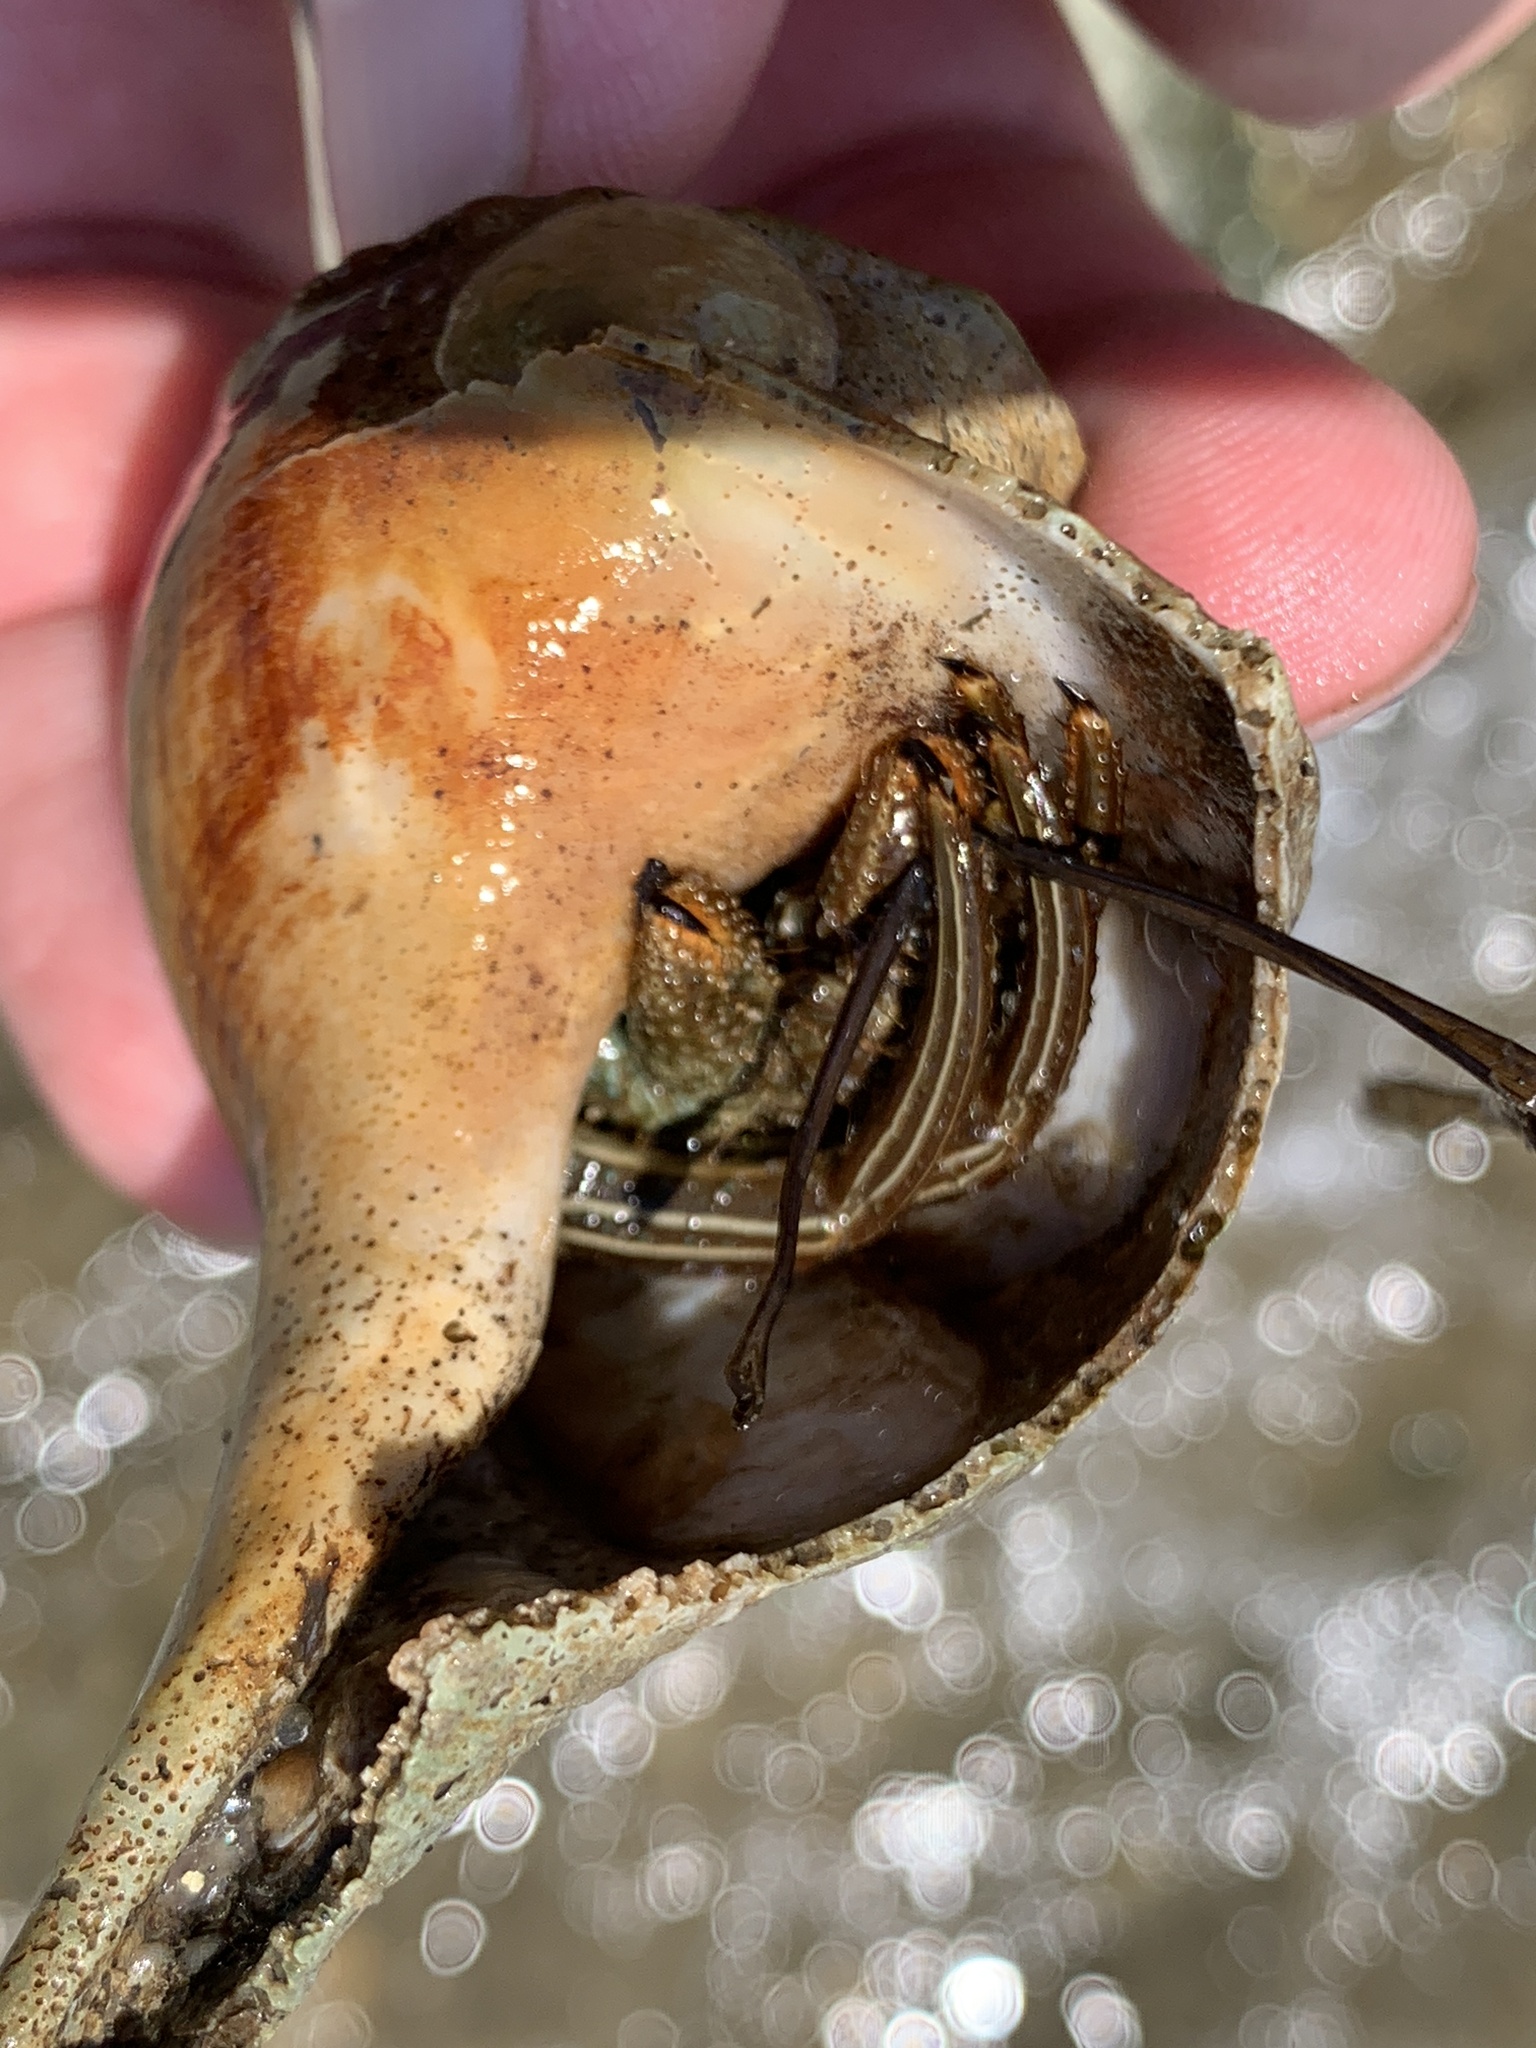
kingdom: Animalia
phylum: Arthropoda
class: Malacostraca
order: Decapoda
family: Diogenidae
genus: Clibanarius
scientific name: Clibanarius vittatus
